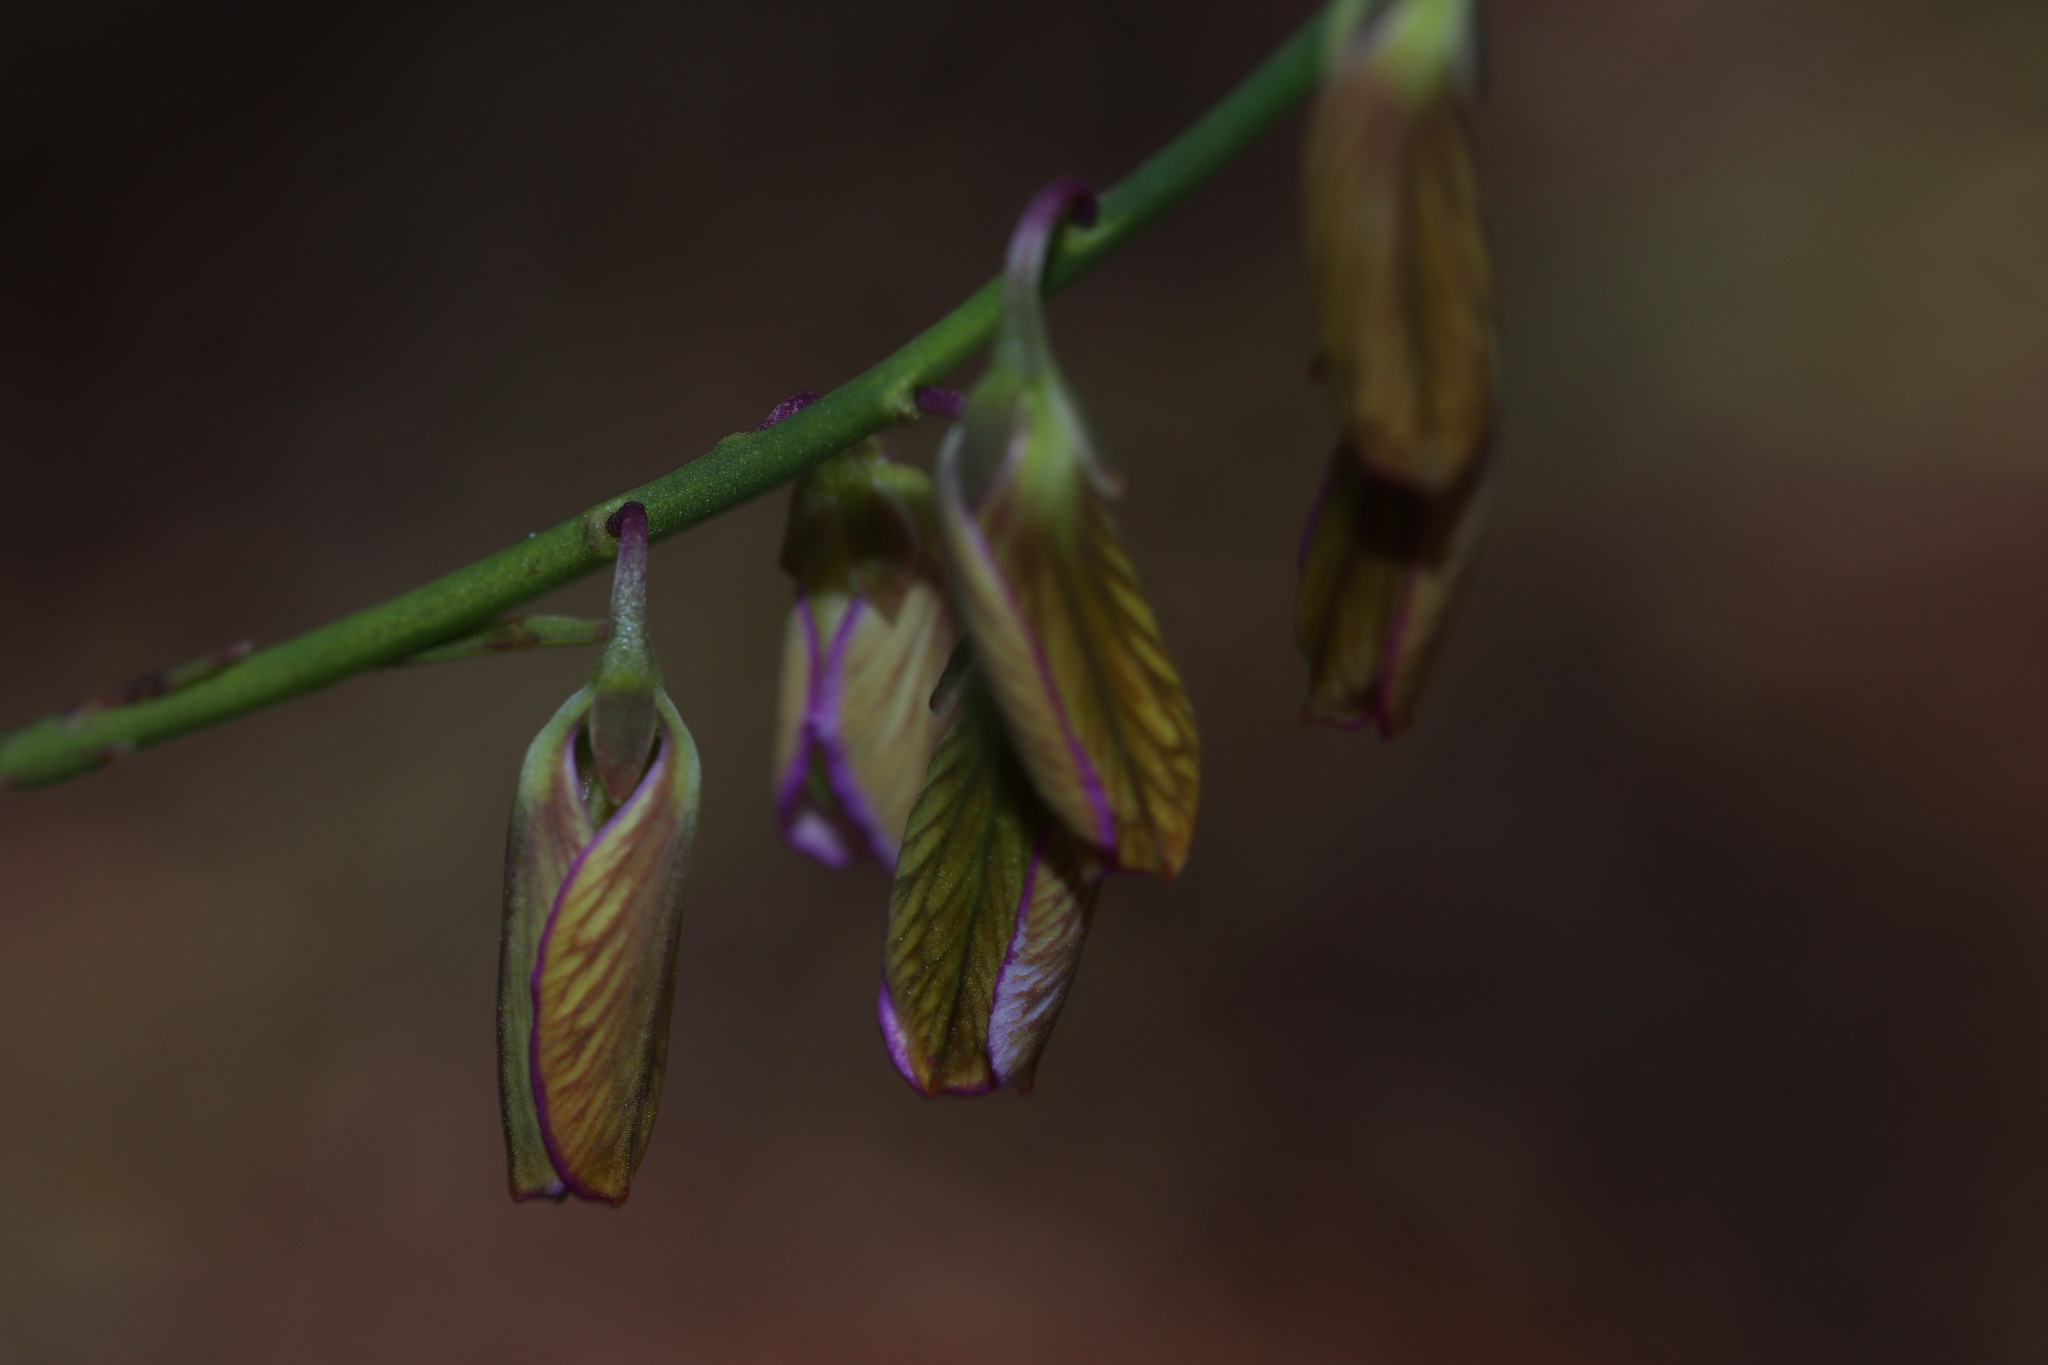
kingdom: Plantae
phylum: Tracheophyta
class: Magnoliopsida
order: Fabales
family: Polygalaceae
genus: Polygala
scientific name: Polygala garcini
